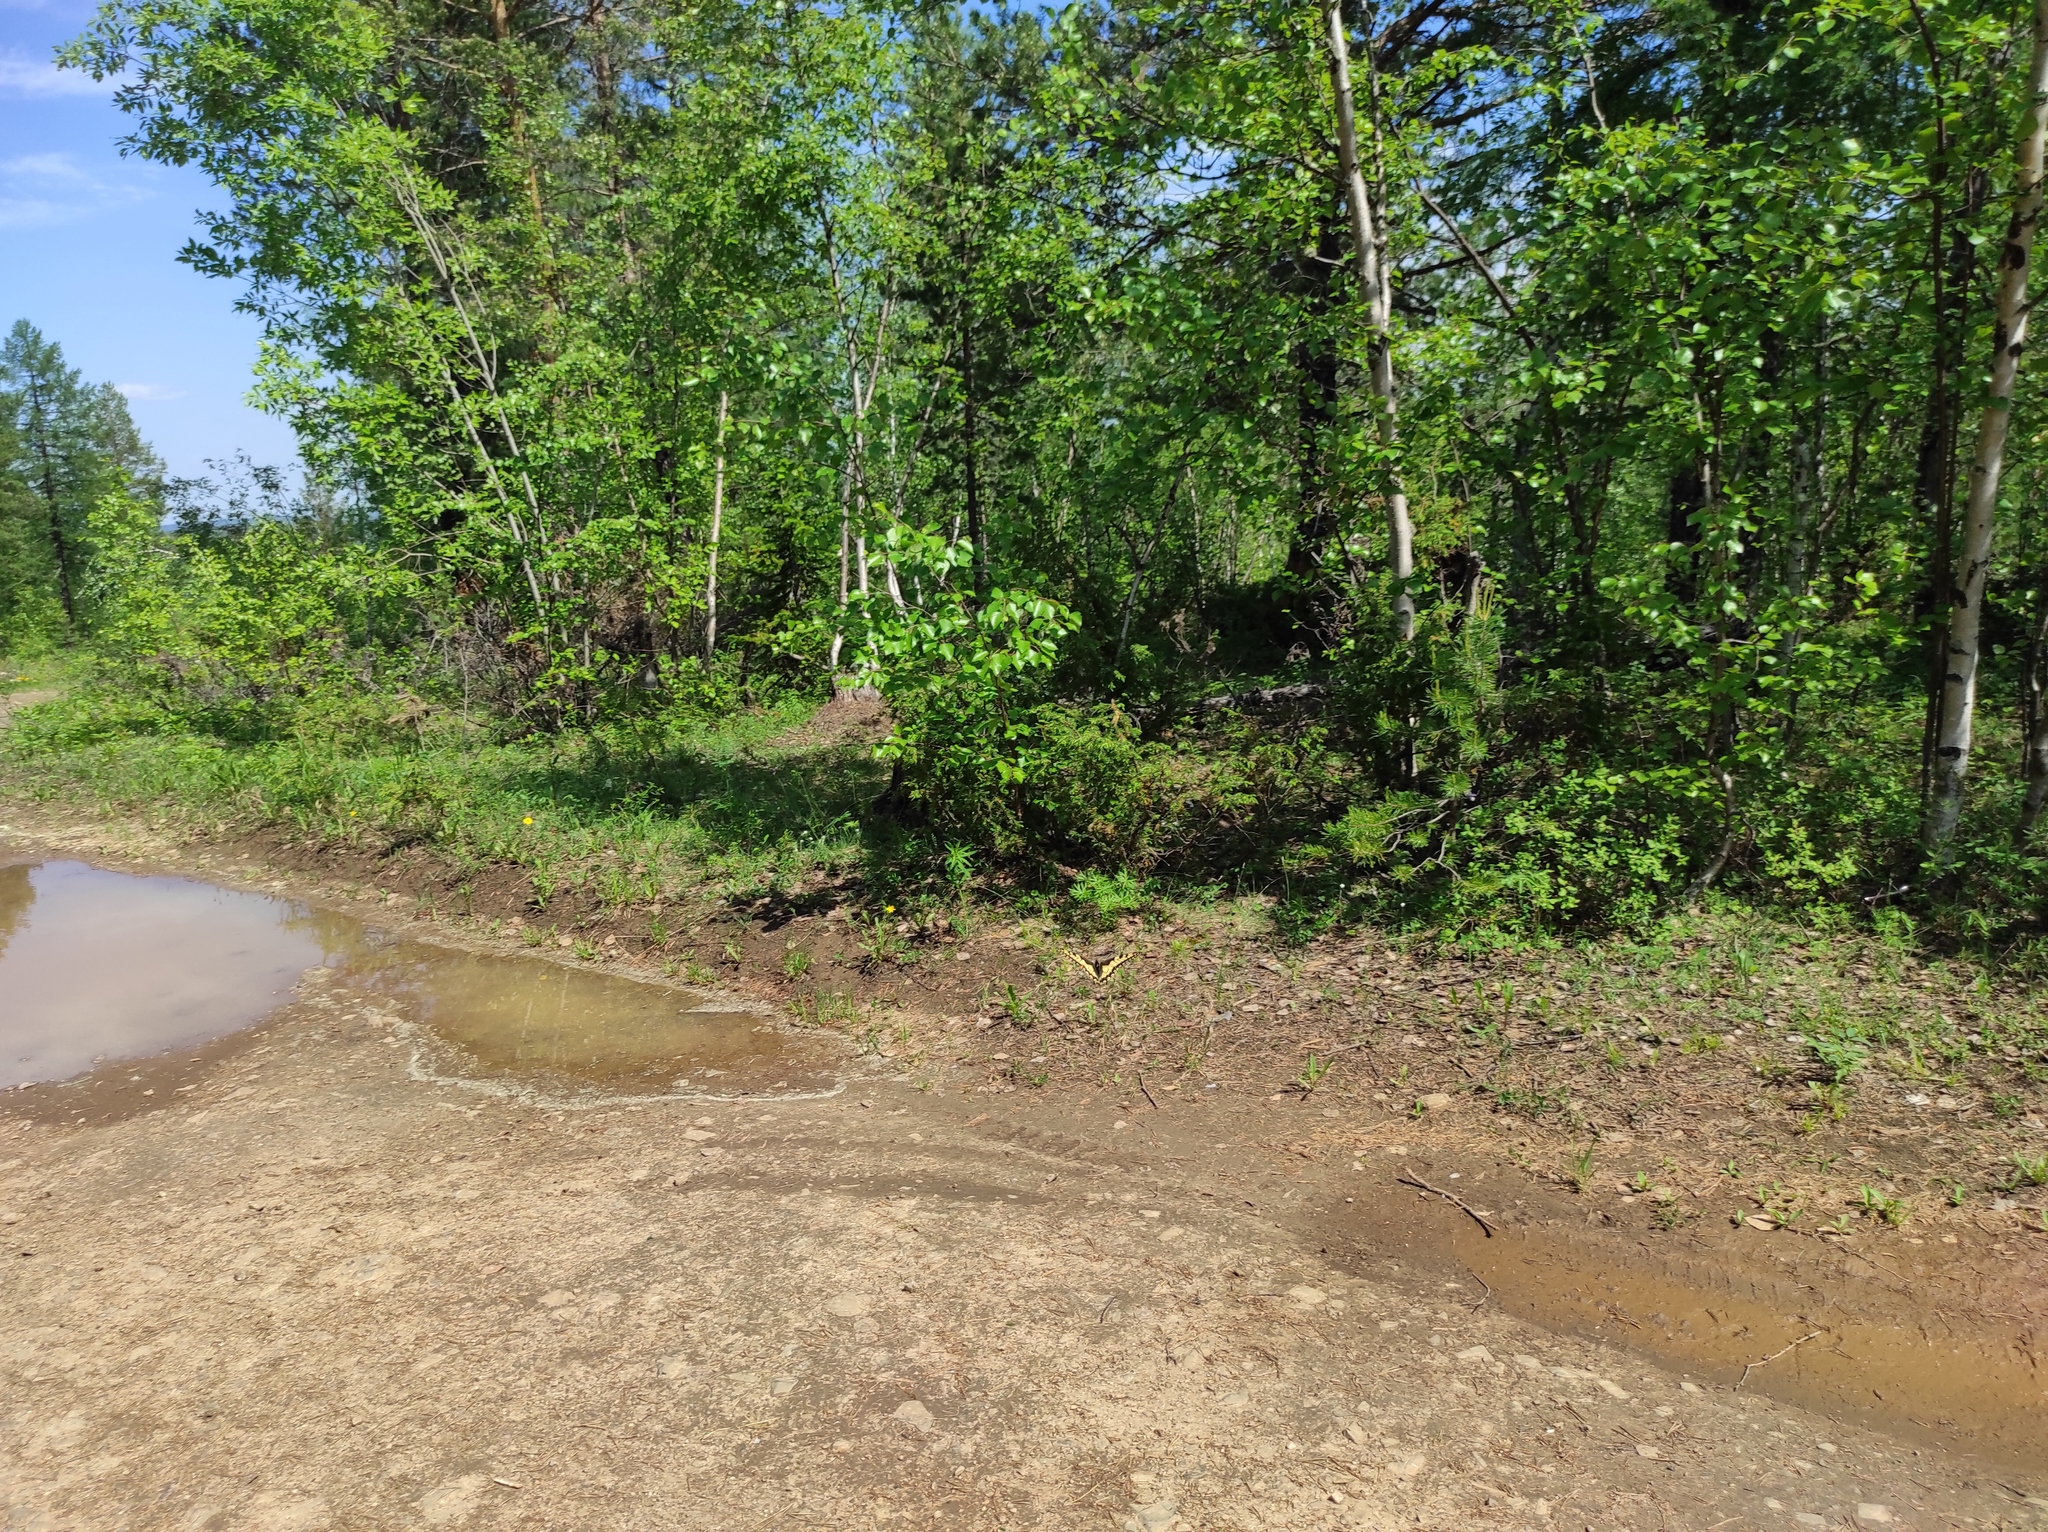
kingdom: Animalia
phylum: Arthropoda
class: Insecta
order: Lepidoptera
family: Papilionidae
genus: Papilio
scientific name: Papilio machaon
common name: Swallowtail
